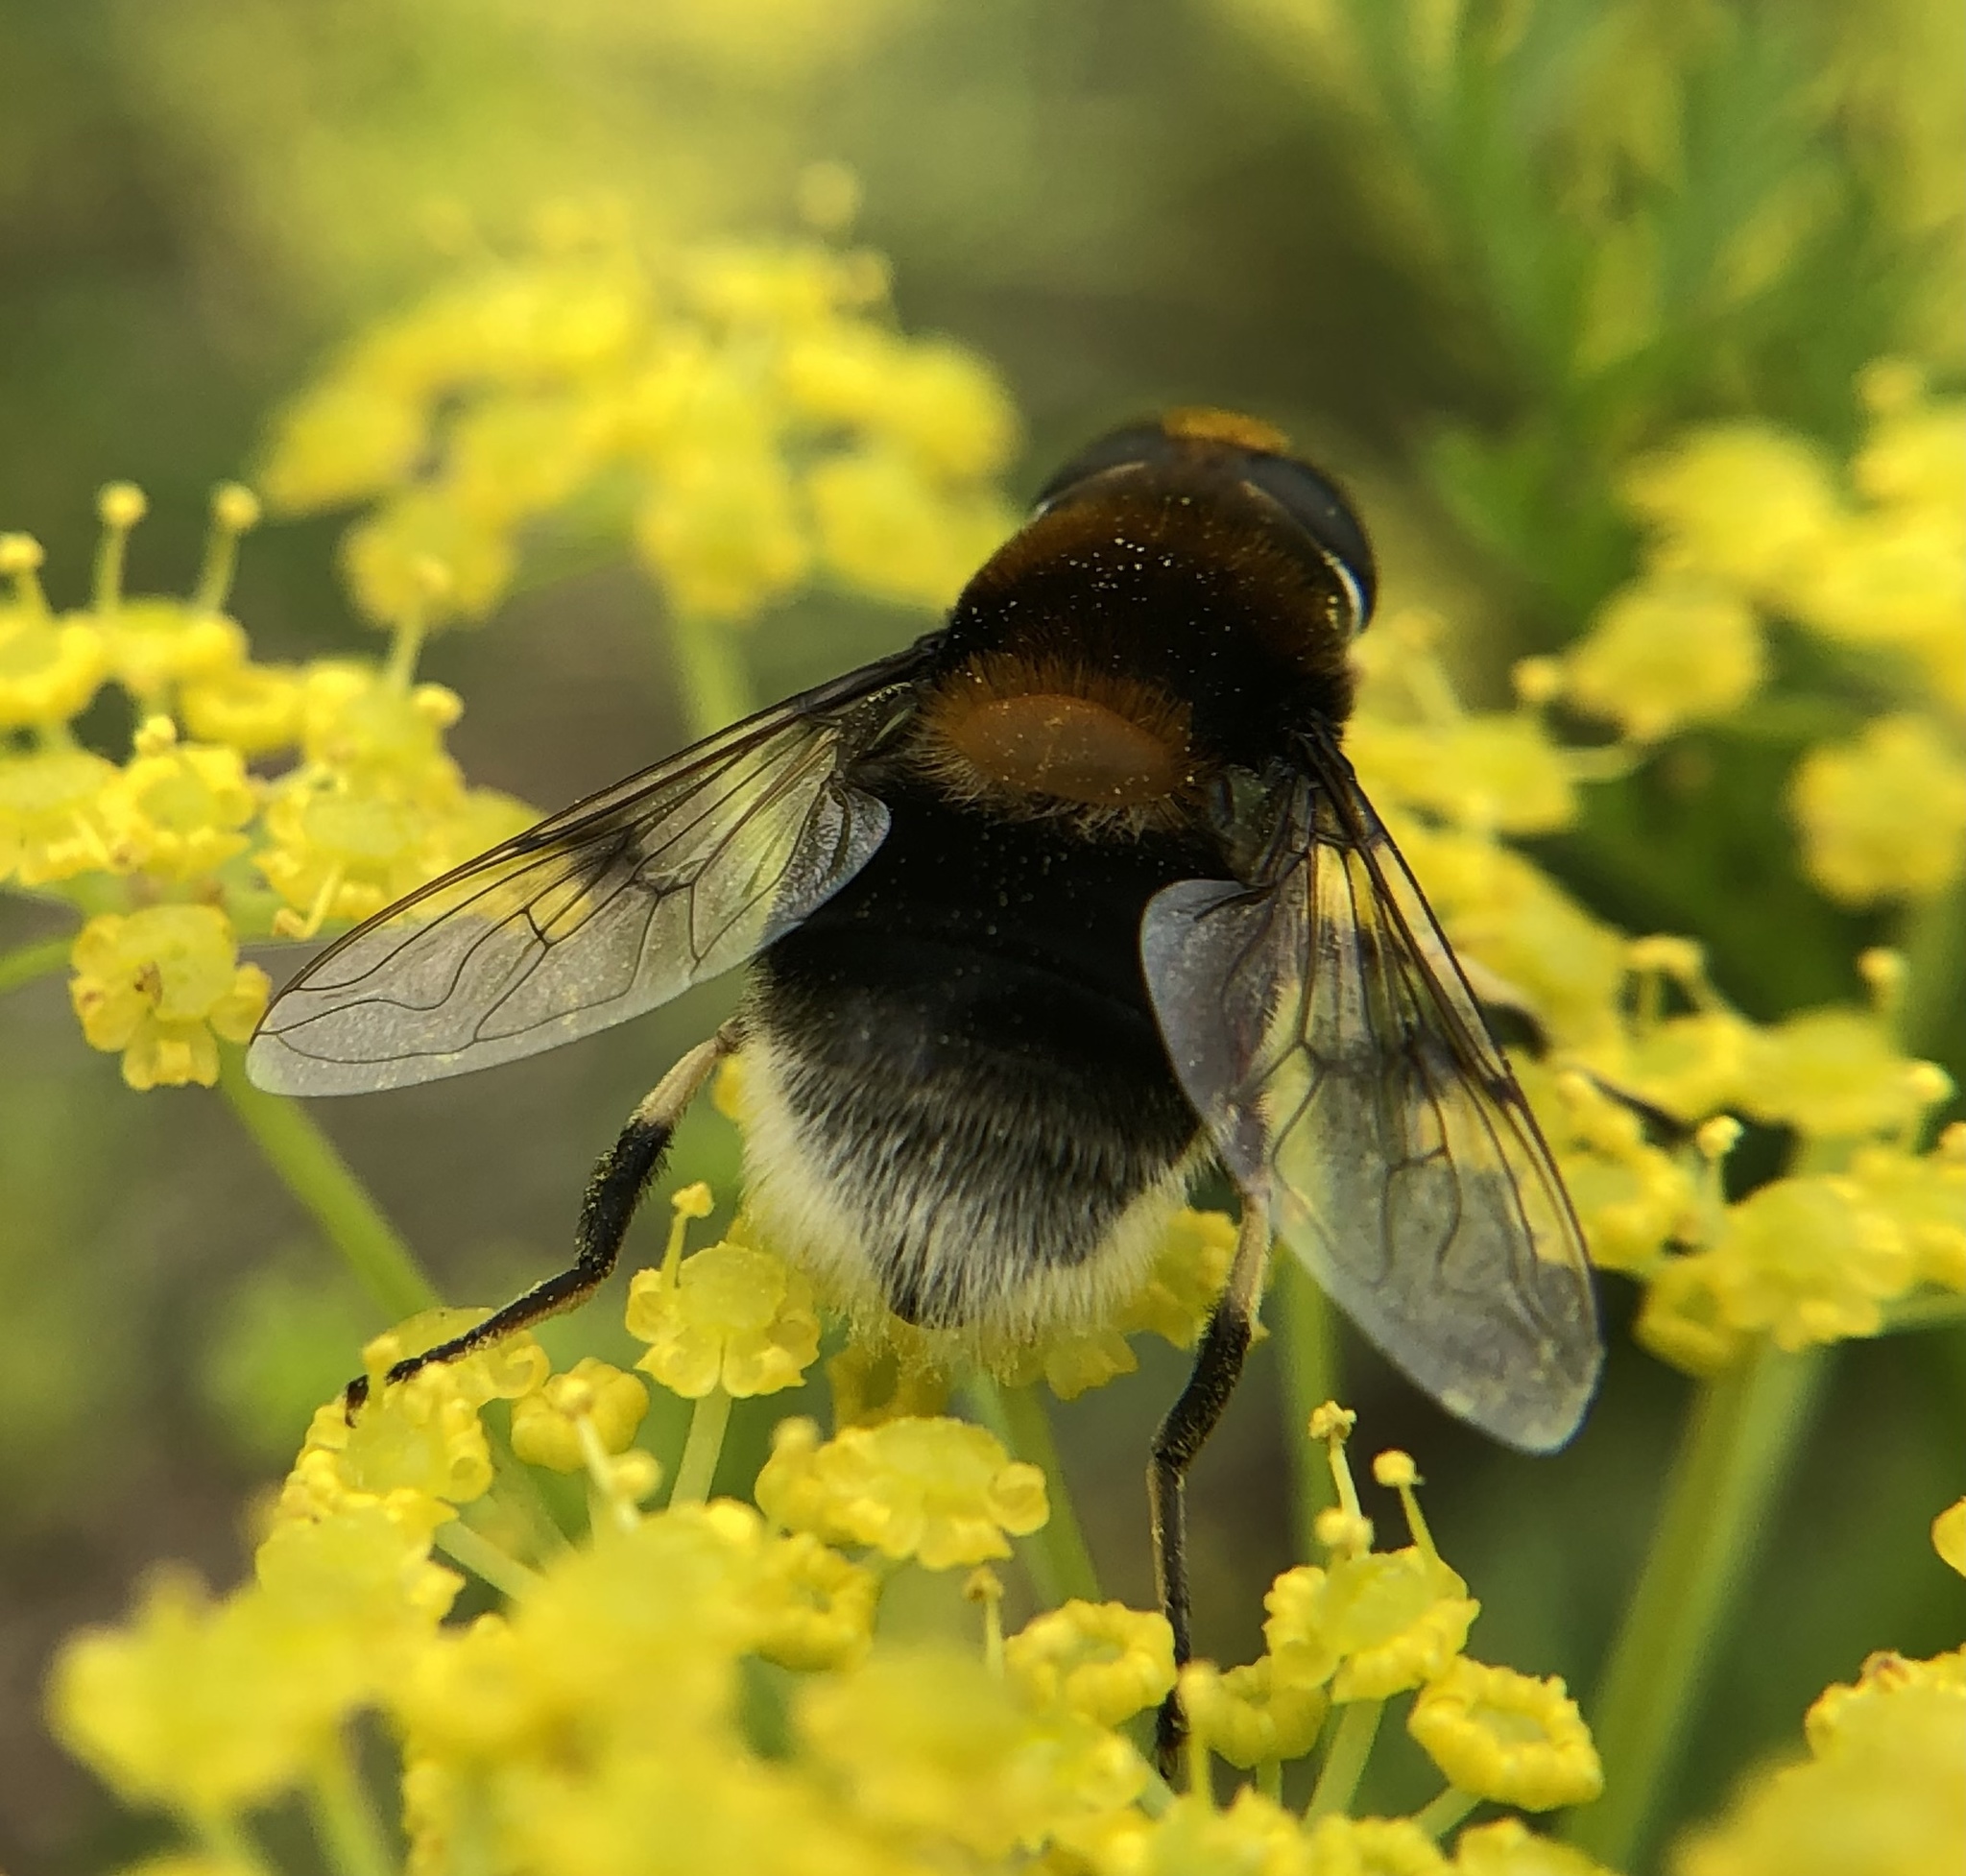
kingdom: Animalia
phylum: Arthropoda
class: Insecta
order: Diptera
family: Syrphidae
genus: Eristalis
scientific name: Eristalis intricaria
